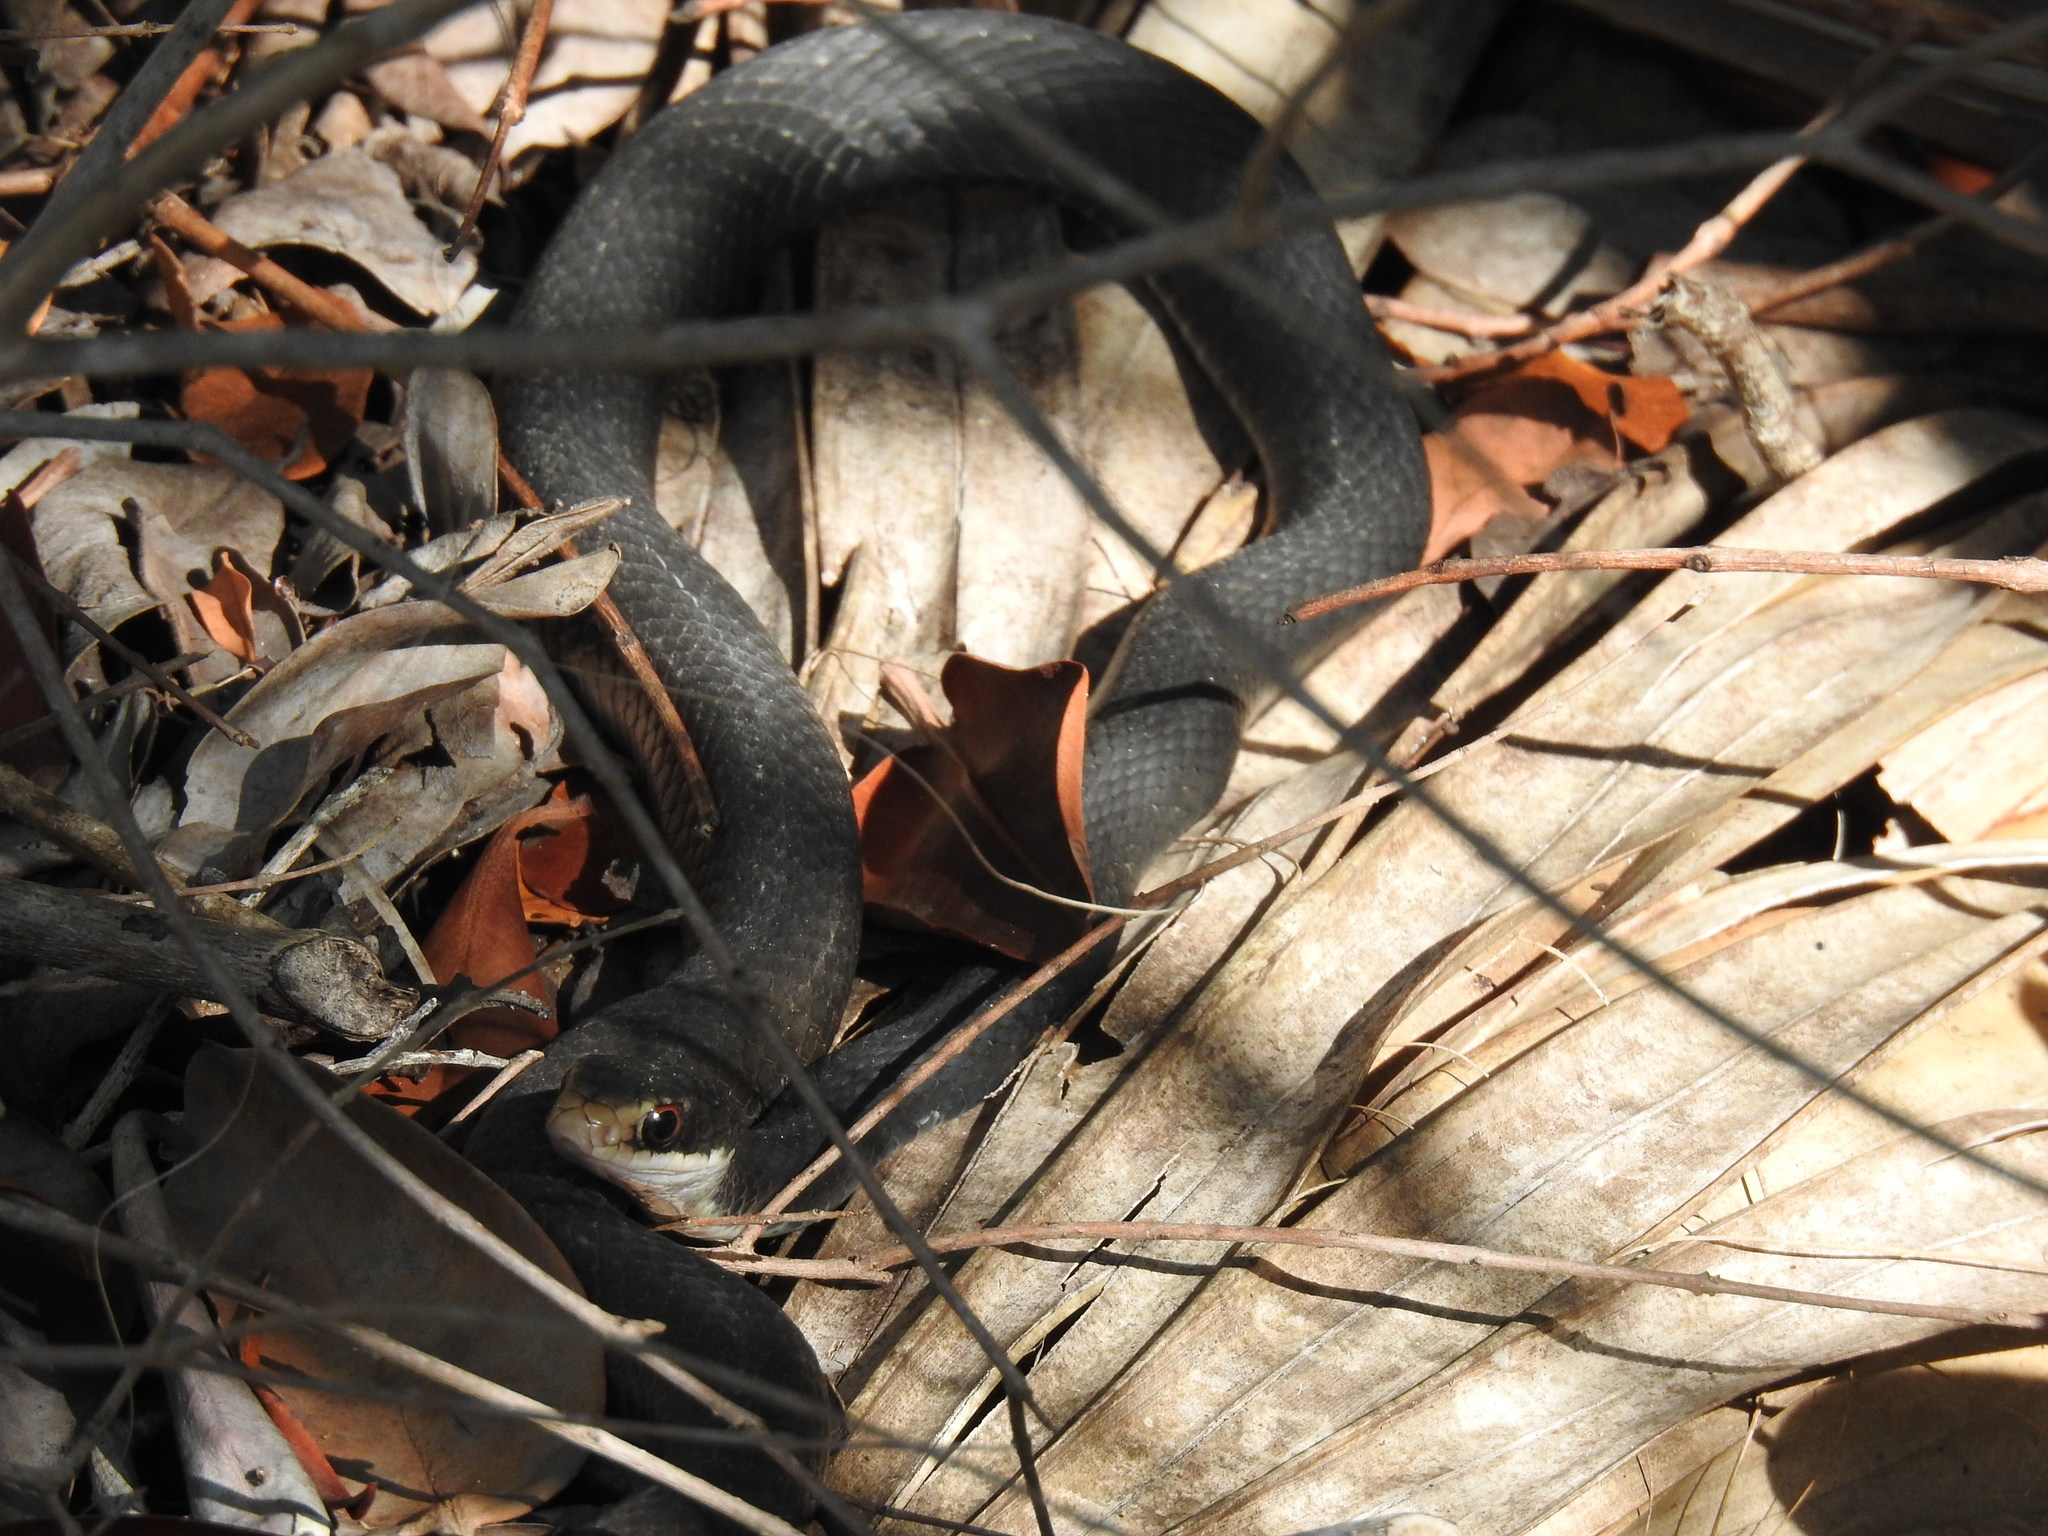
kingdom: Animalia
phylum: Chordata
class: Squamata
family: Colubridae
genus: Coluber
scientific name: Coluber constrictor
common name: Eastern racer
